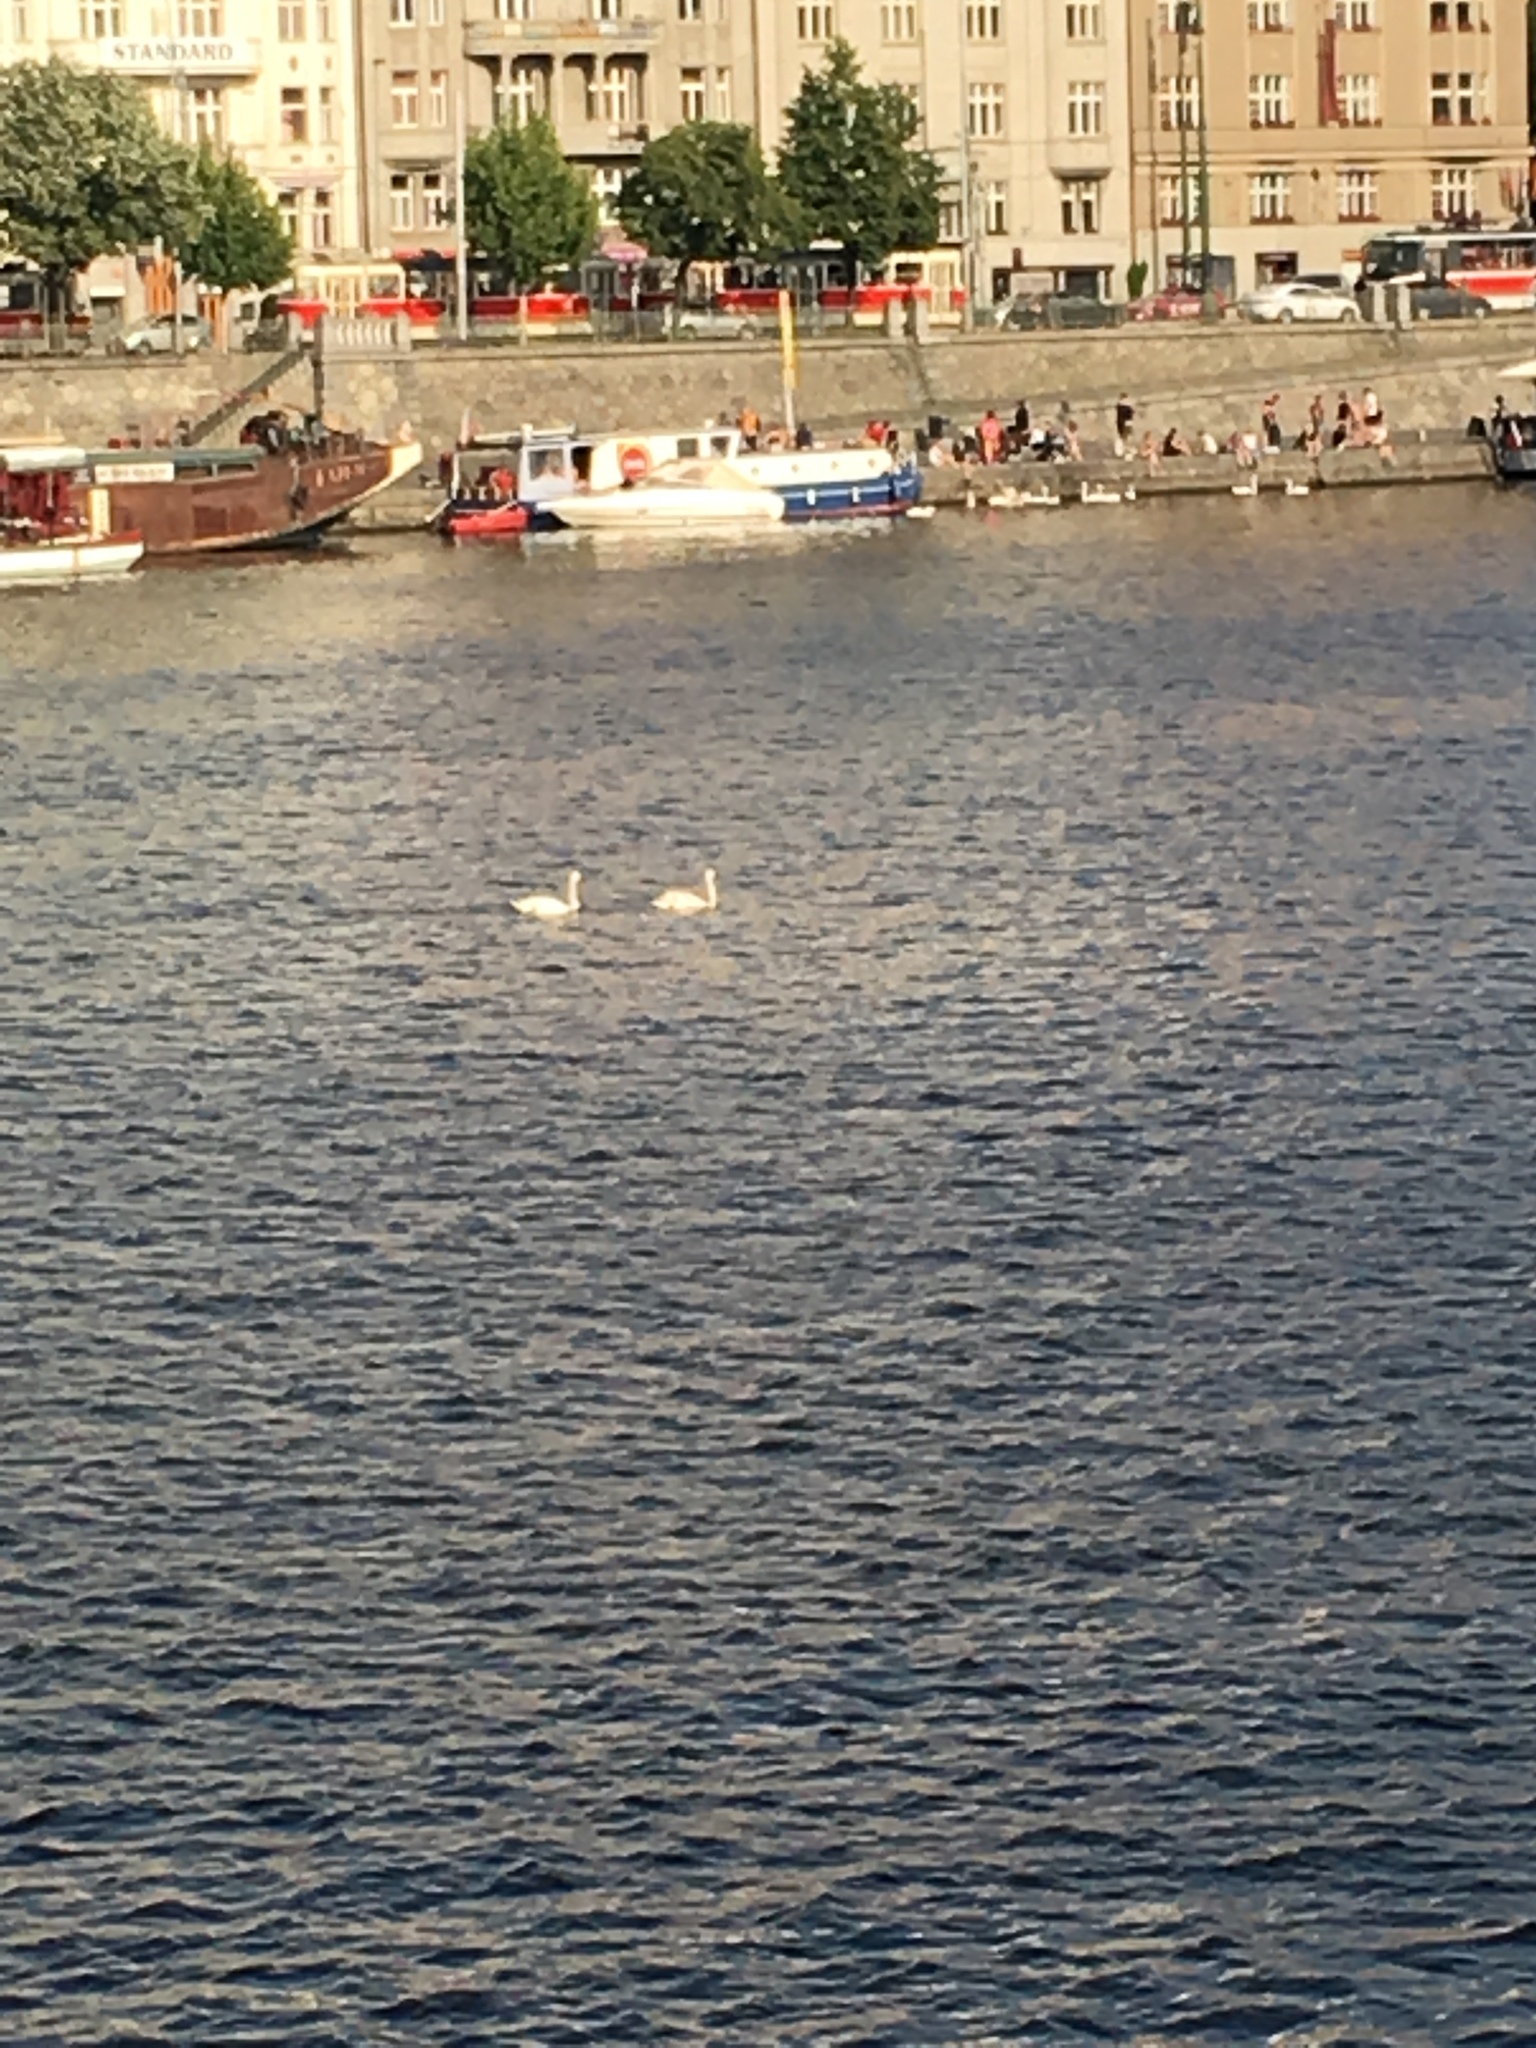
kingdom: Animalia
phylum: Chordata
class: Aves
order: Anseriformes
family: Anatidae
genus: Cygnus
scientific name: Cygnus olor
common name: Mute swan
